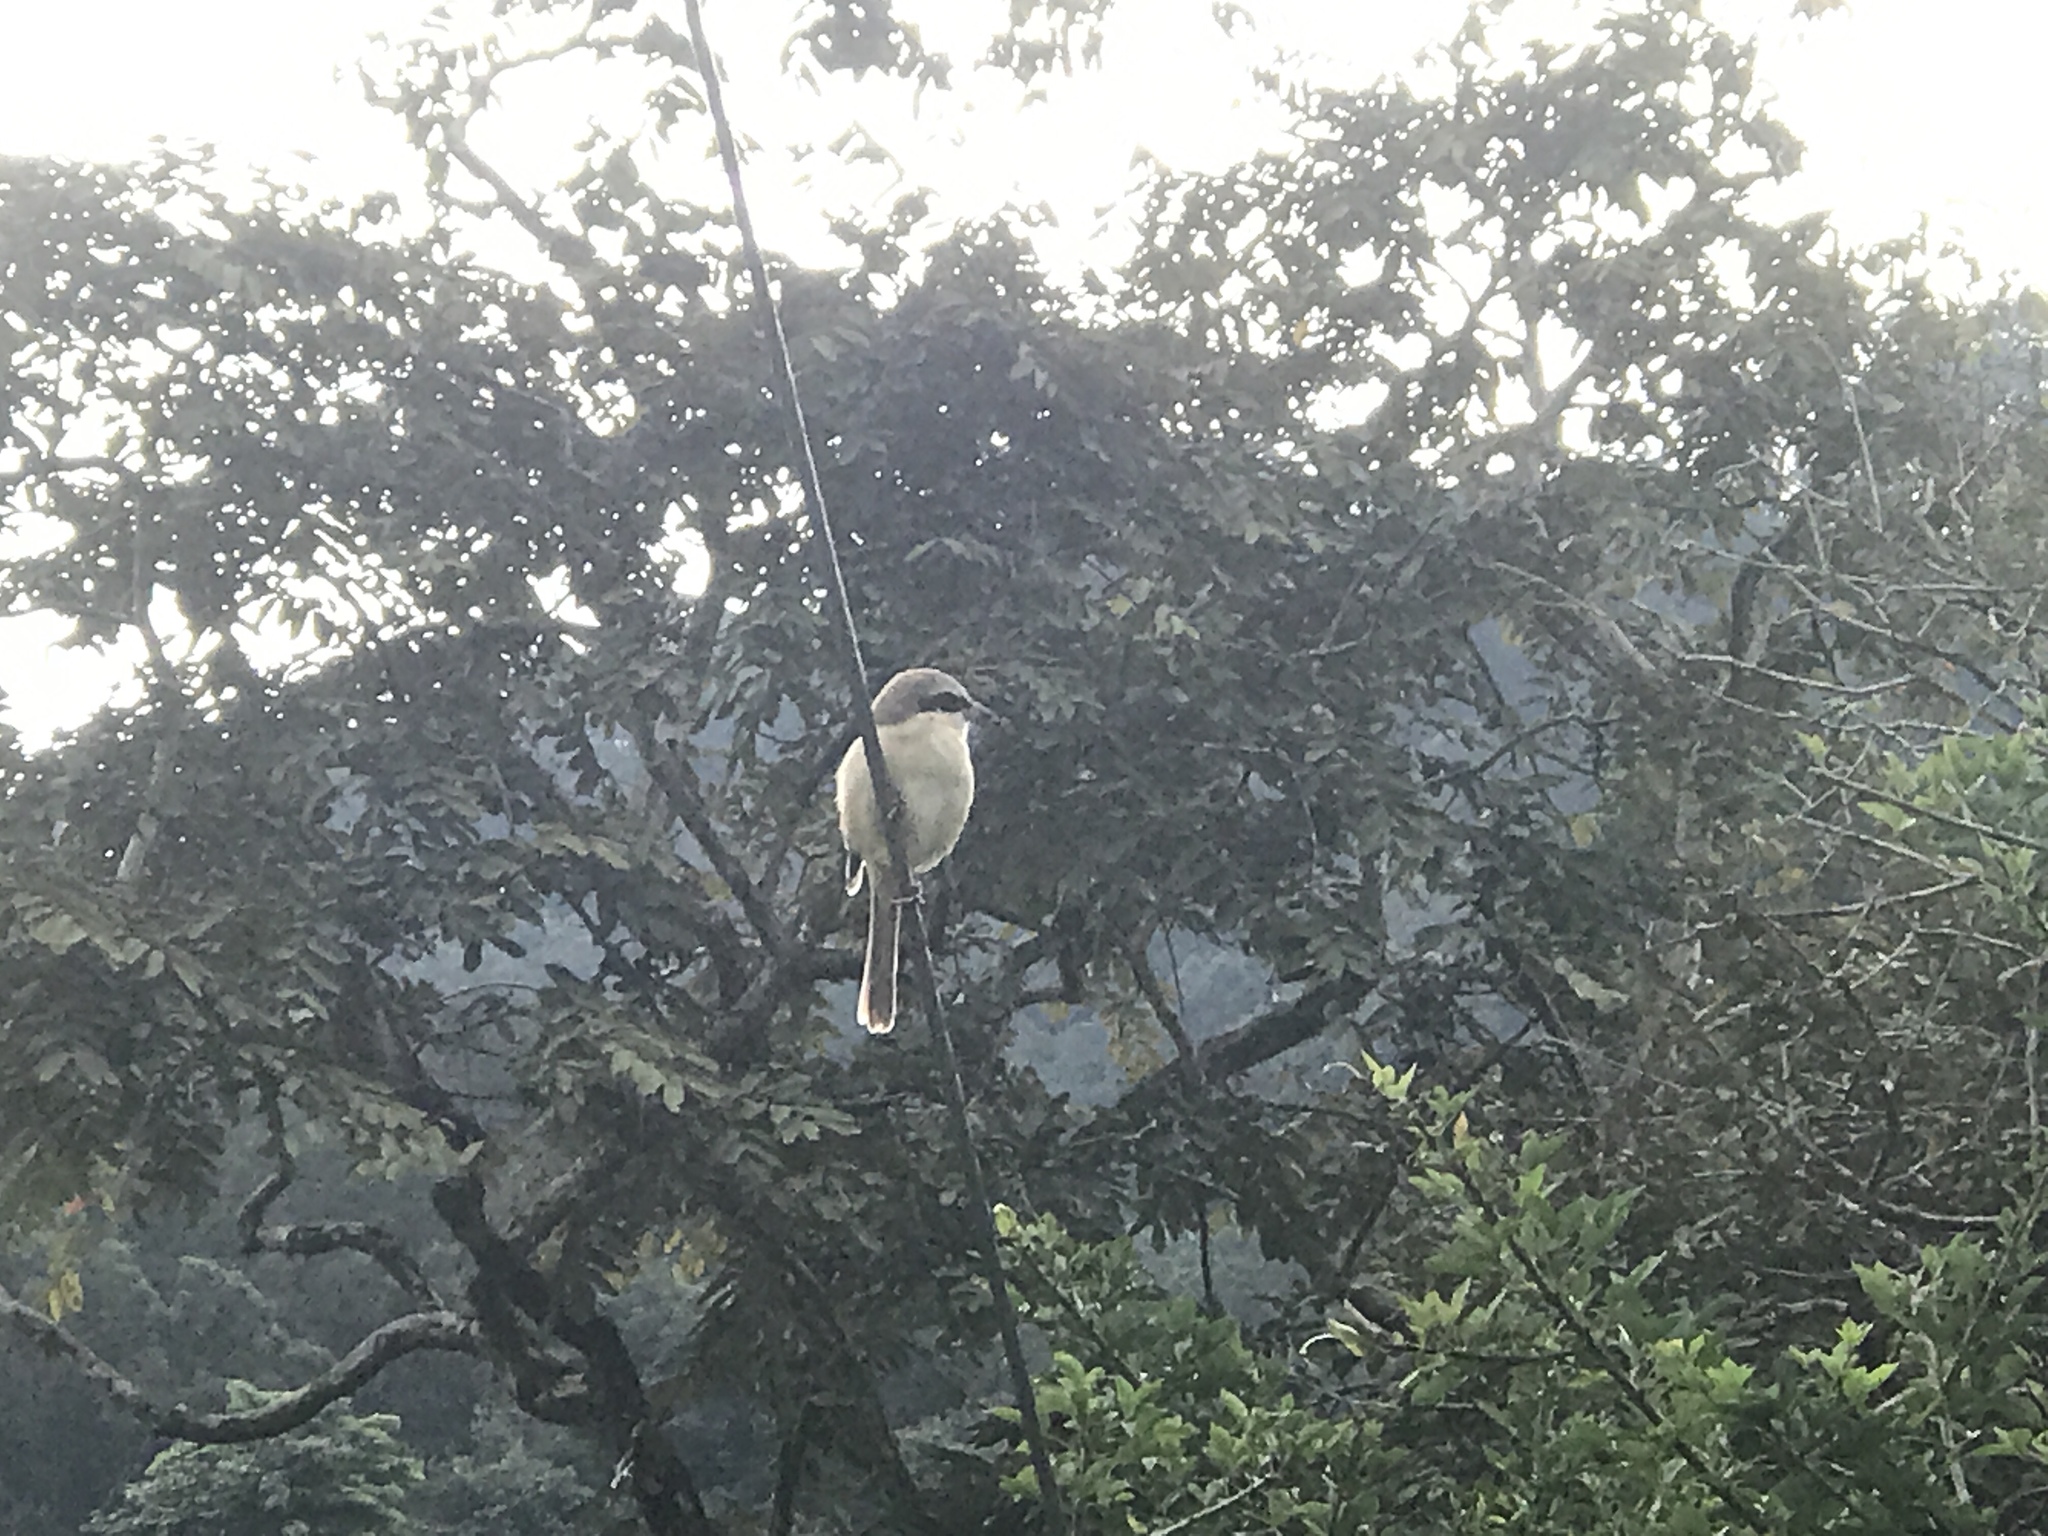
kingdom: Animalia
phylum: Chordata
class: Aves
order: Passeriformes
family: Laniidae
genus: Lanius
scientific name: Lanius cristatus
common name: Brown shrike
